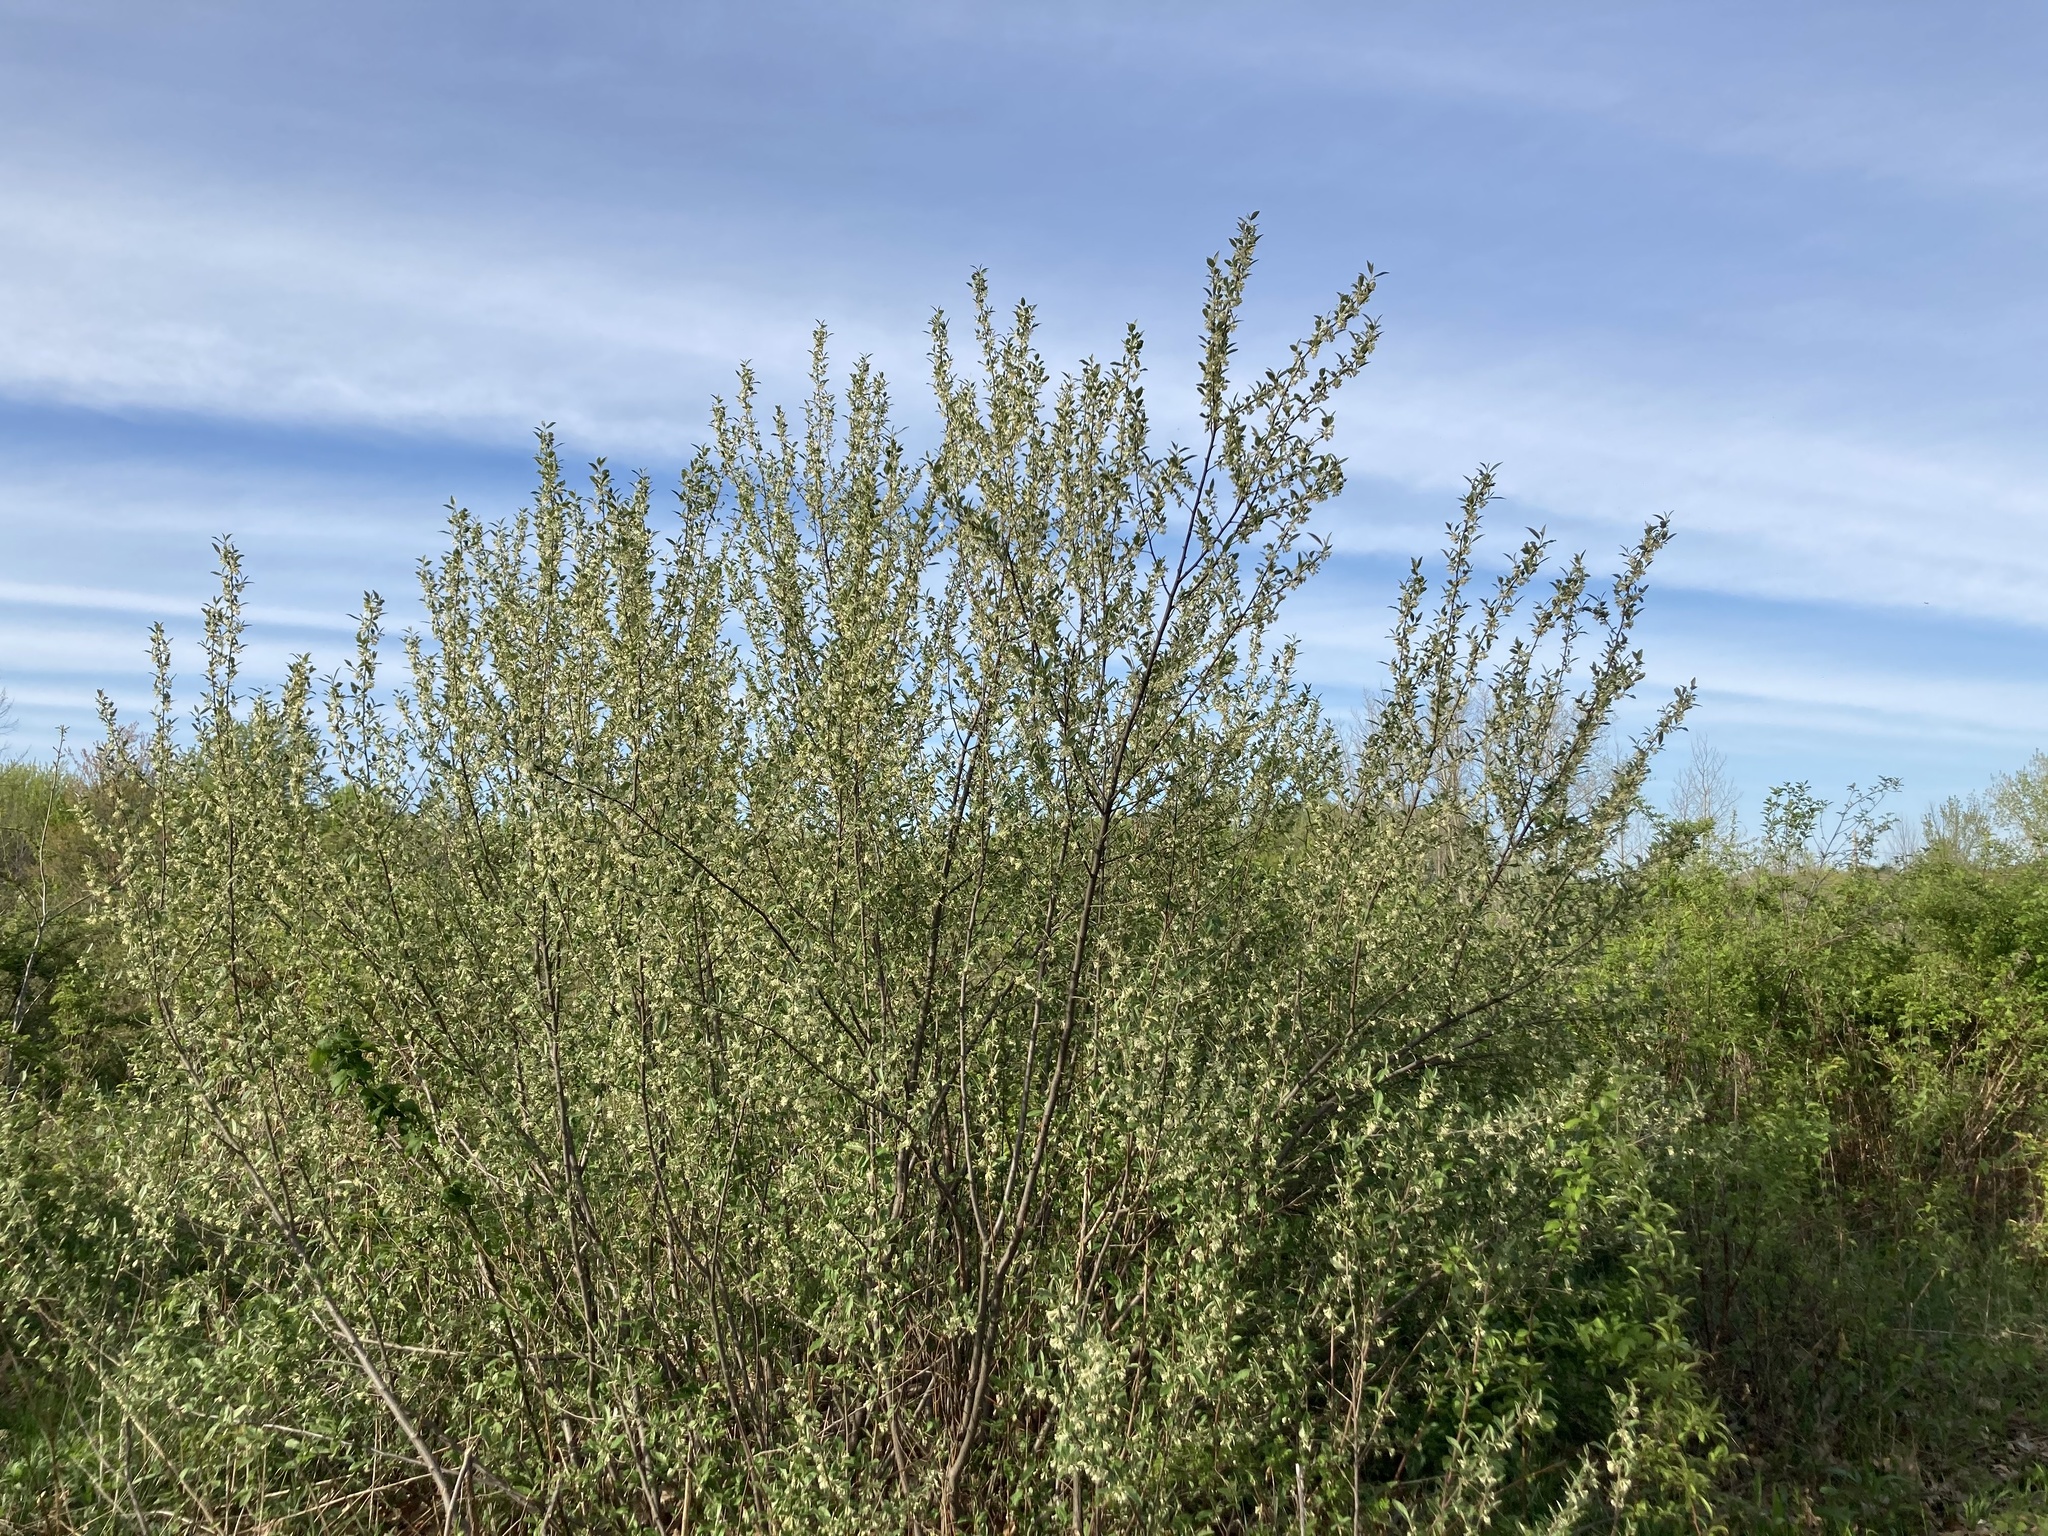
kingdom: Plantae
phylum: Tracheophyta
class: Magnoliopsida
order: Rosales
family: Elaeagnaceae
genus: Elaeagnus
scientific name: Elaeagnus umbellata
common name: Autumn olive
